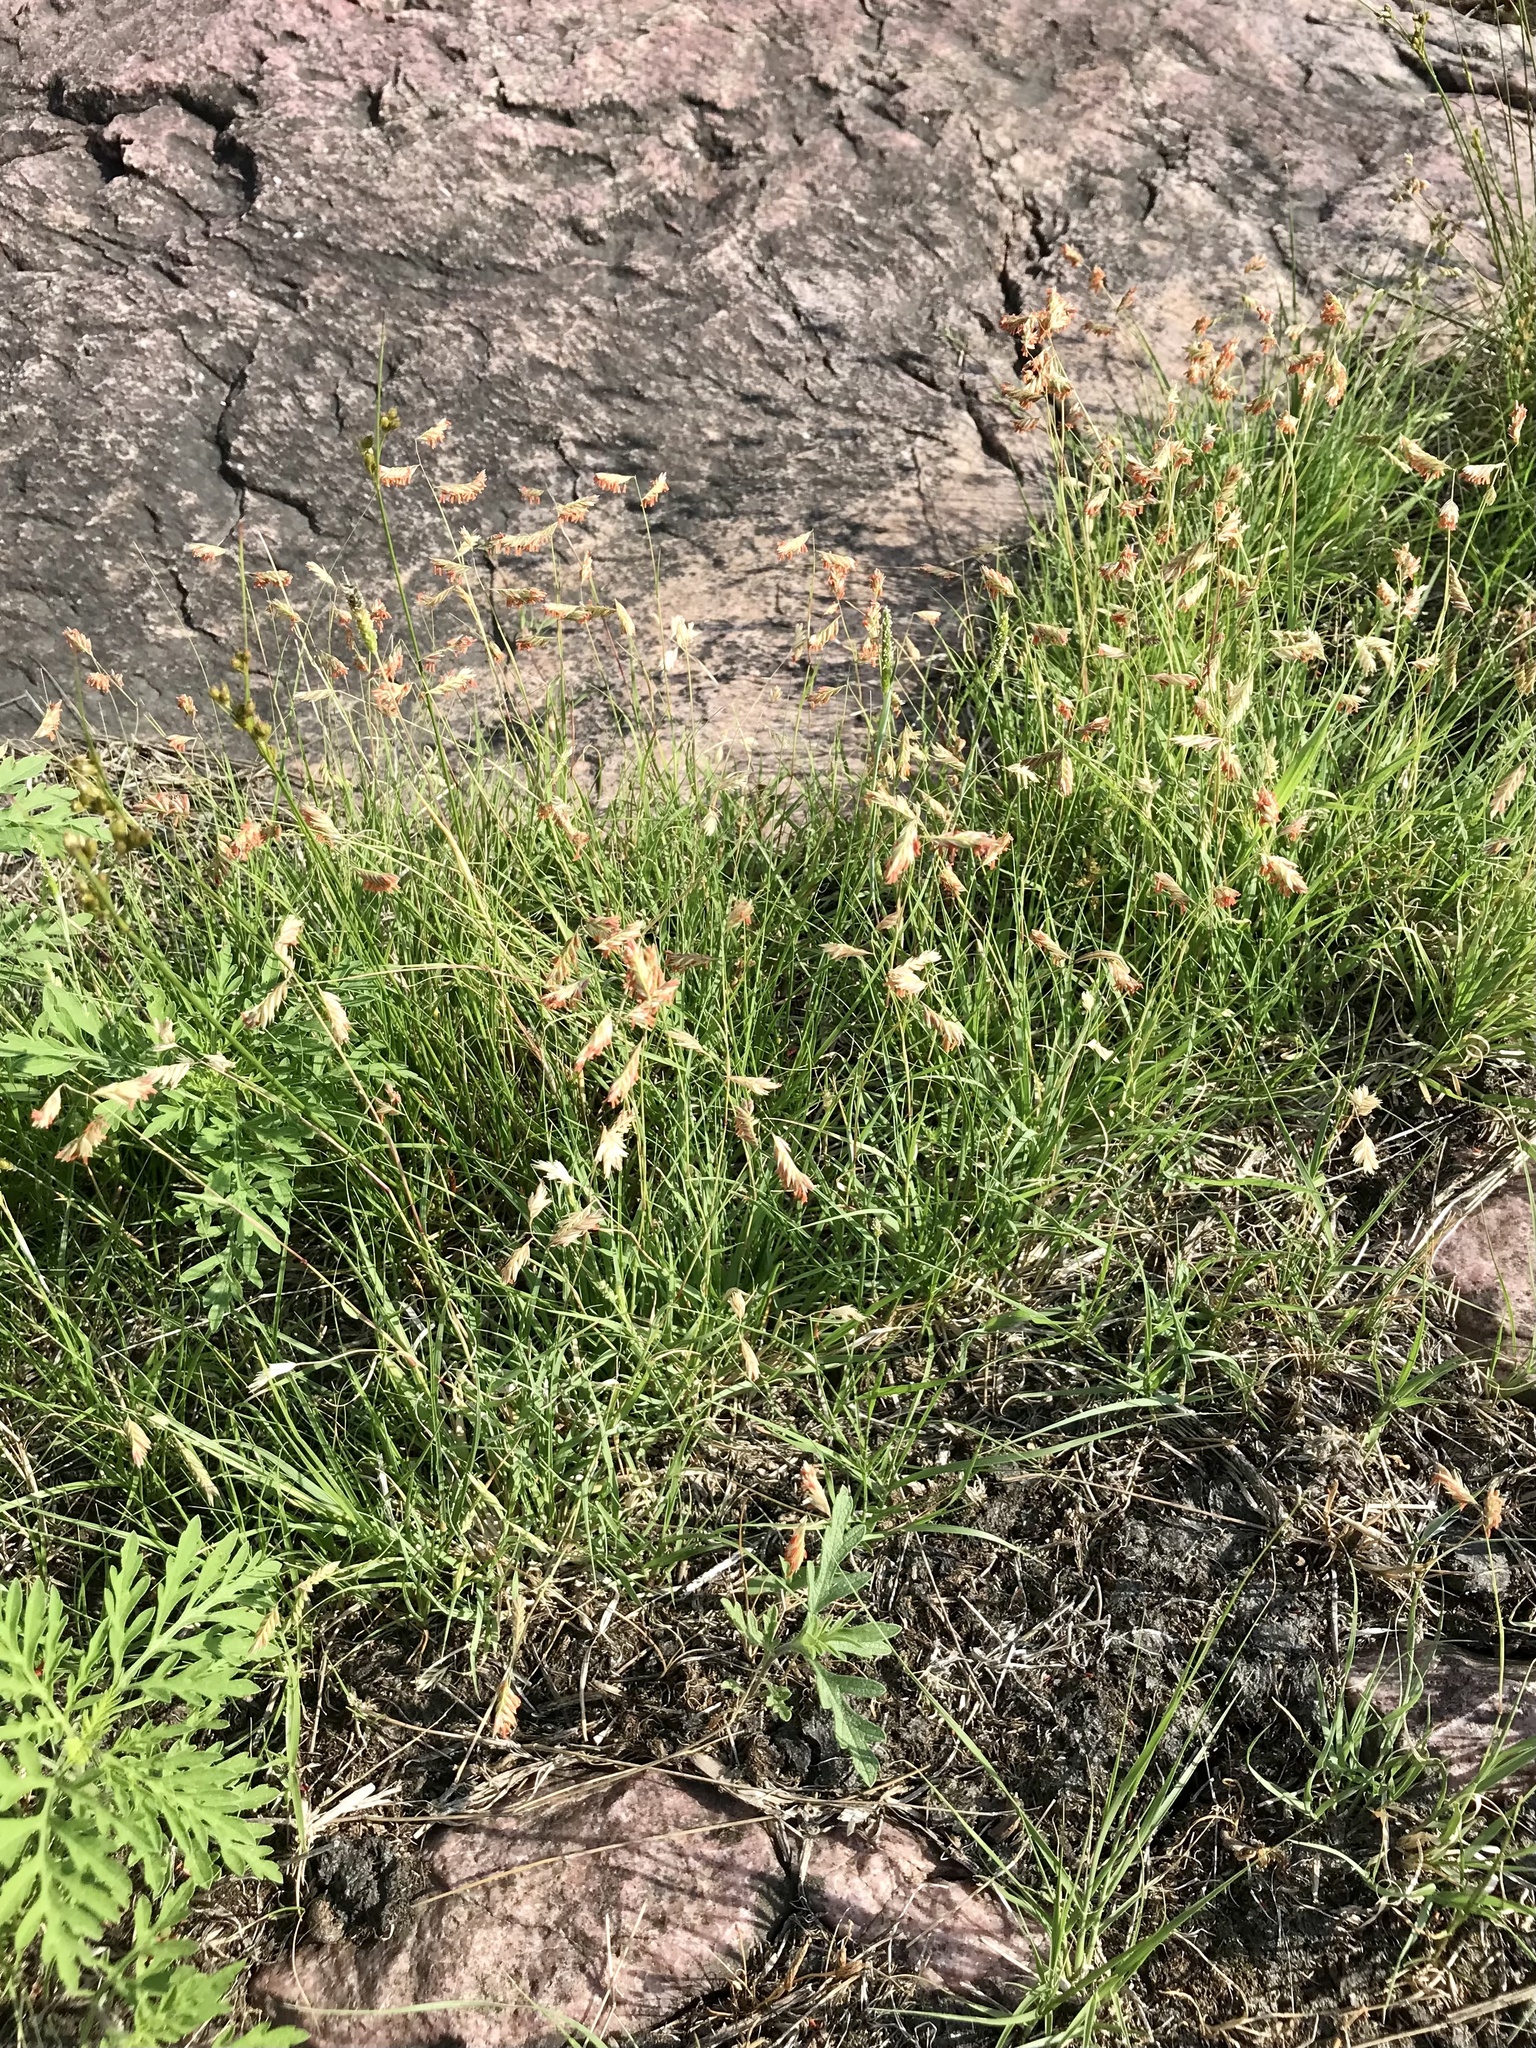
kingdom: Plantae
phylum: Tracheophyta
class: Liliopsida
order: Poales
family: Poaceae
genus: Bouteloua
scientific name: Bouteloua dactyloides
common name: Buffalo grass
